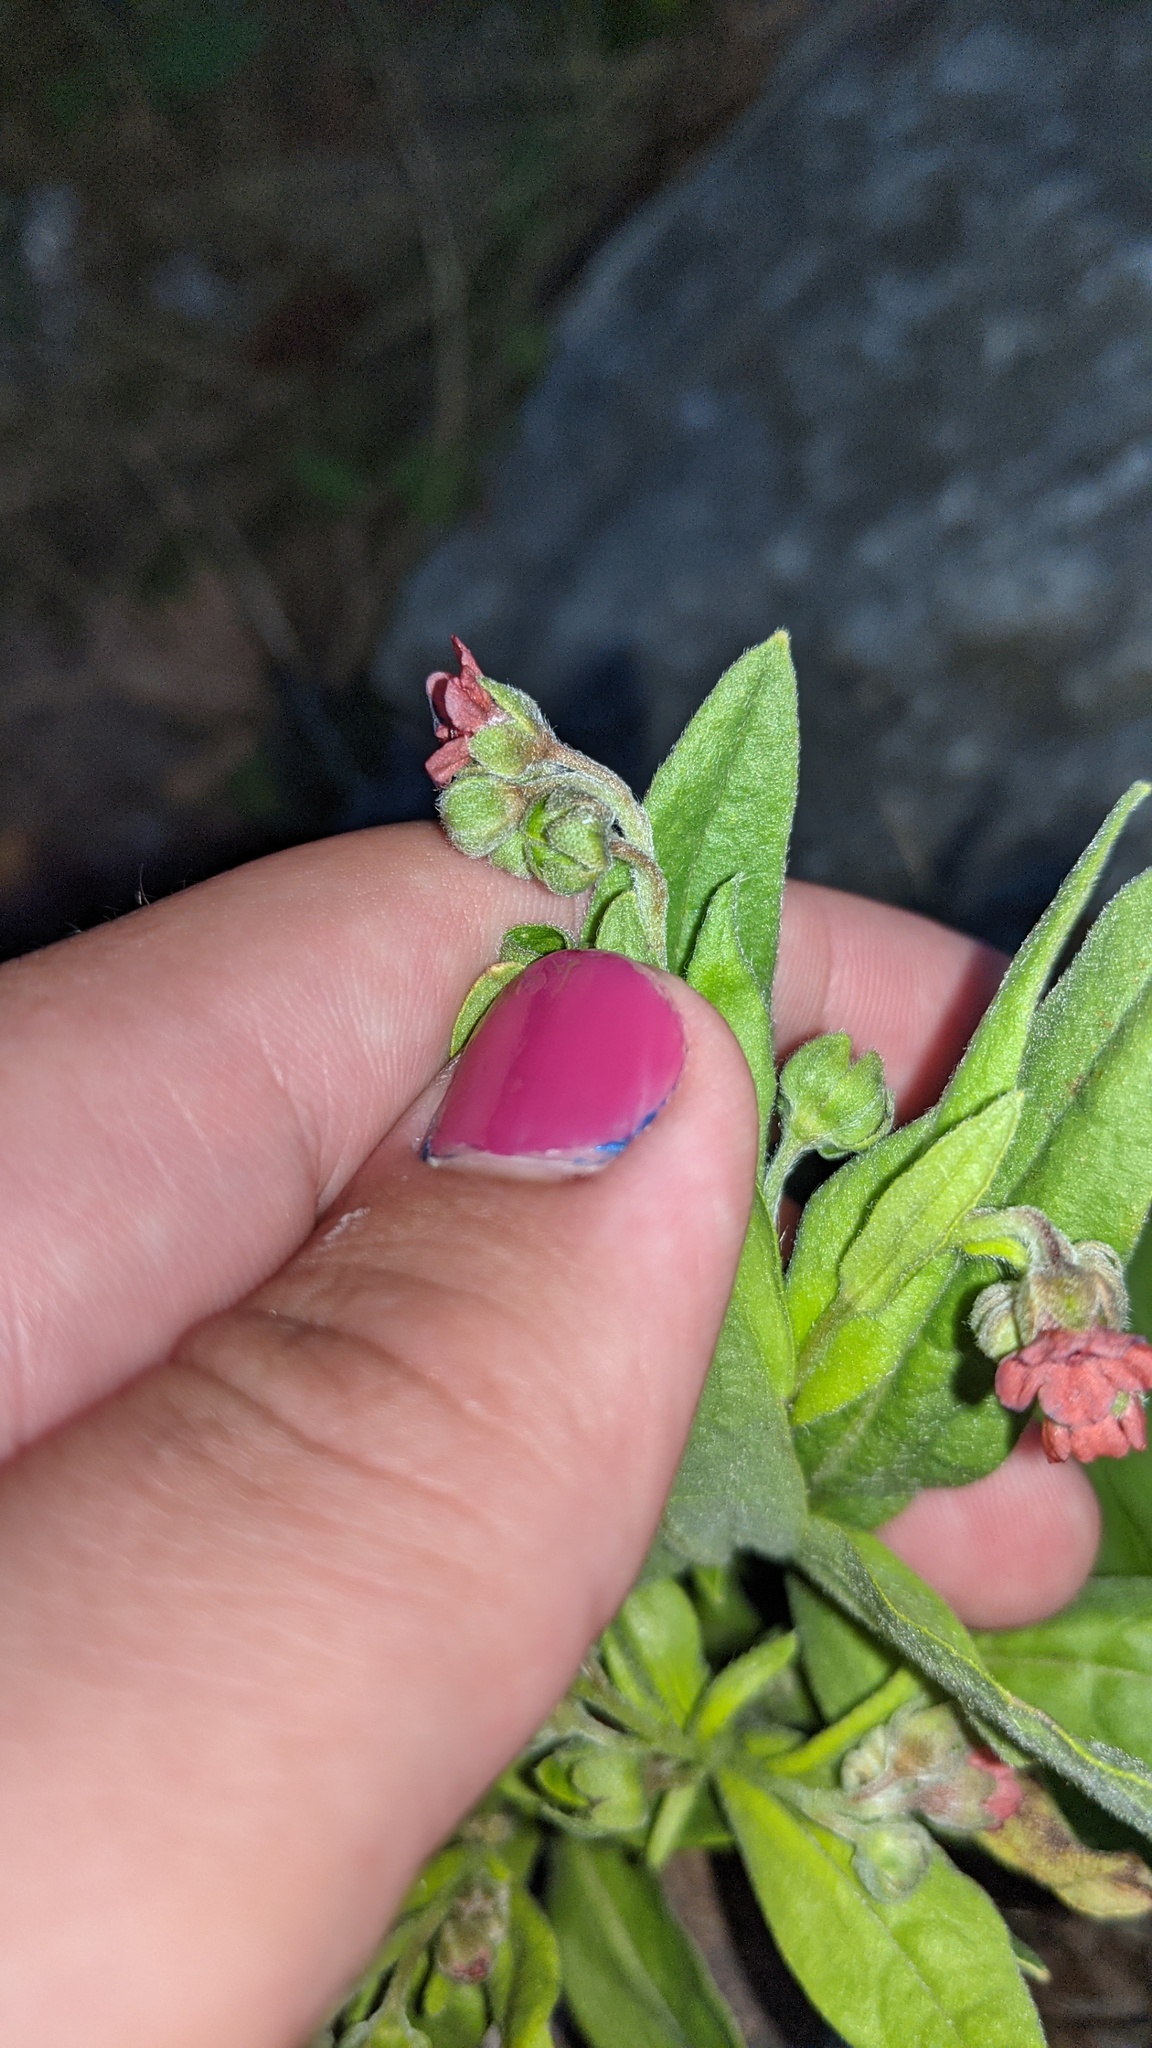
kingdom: Plantae
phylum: Tracheophyta
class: Magnoliopsida
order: Boraginales
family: Boraginaceae
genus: Cynoglossum
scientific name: Cynoglossum officinale
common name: Hound's-tongue
